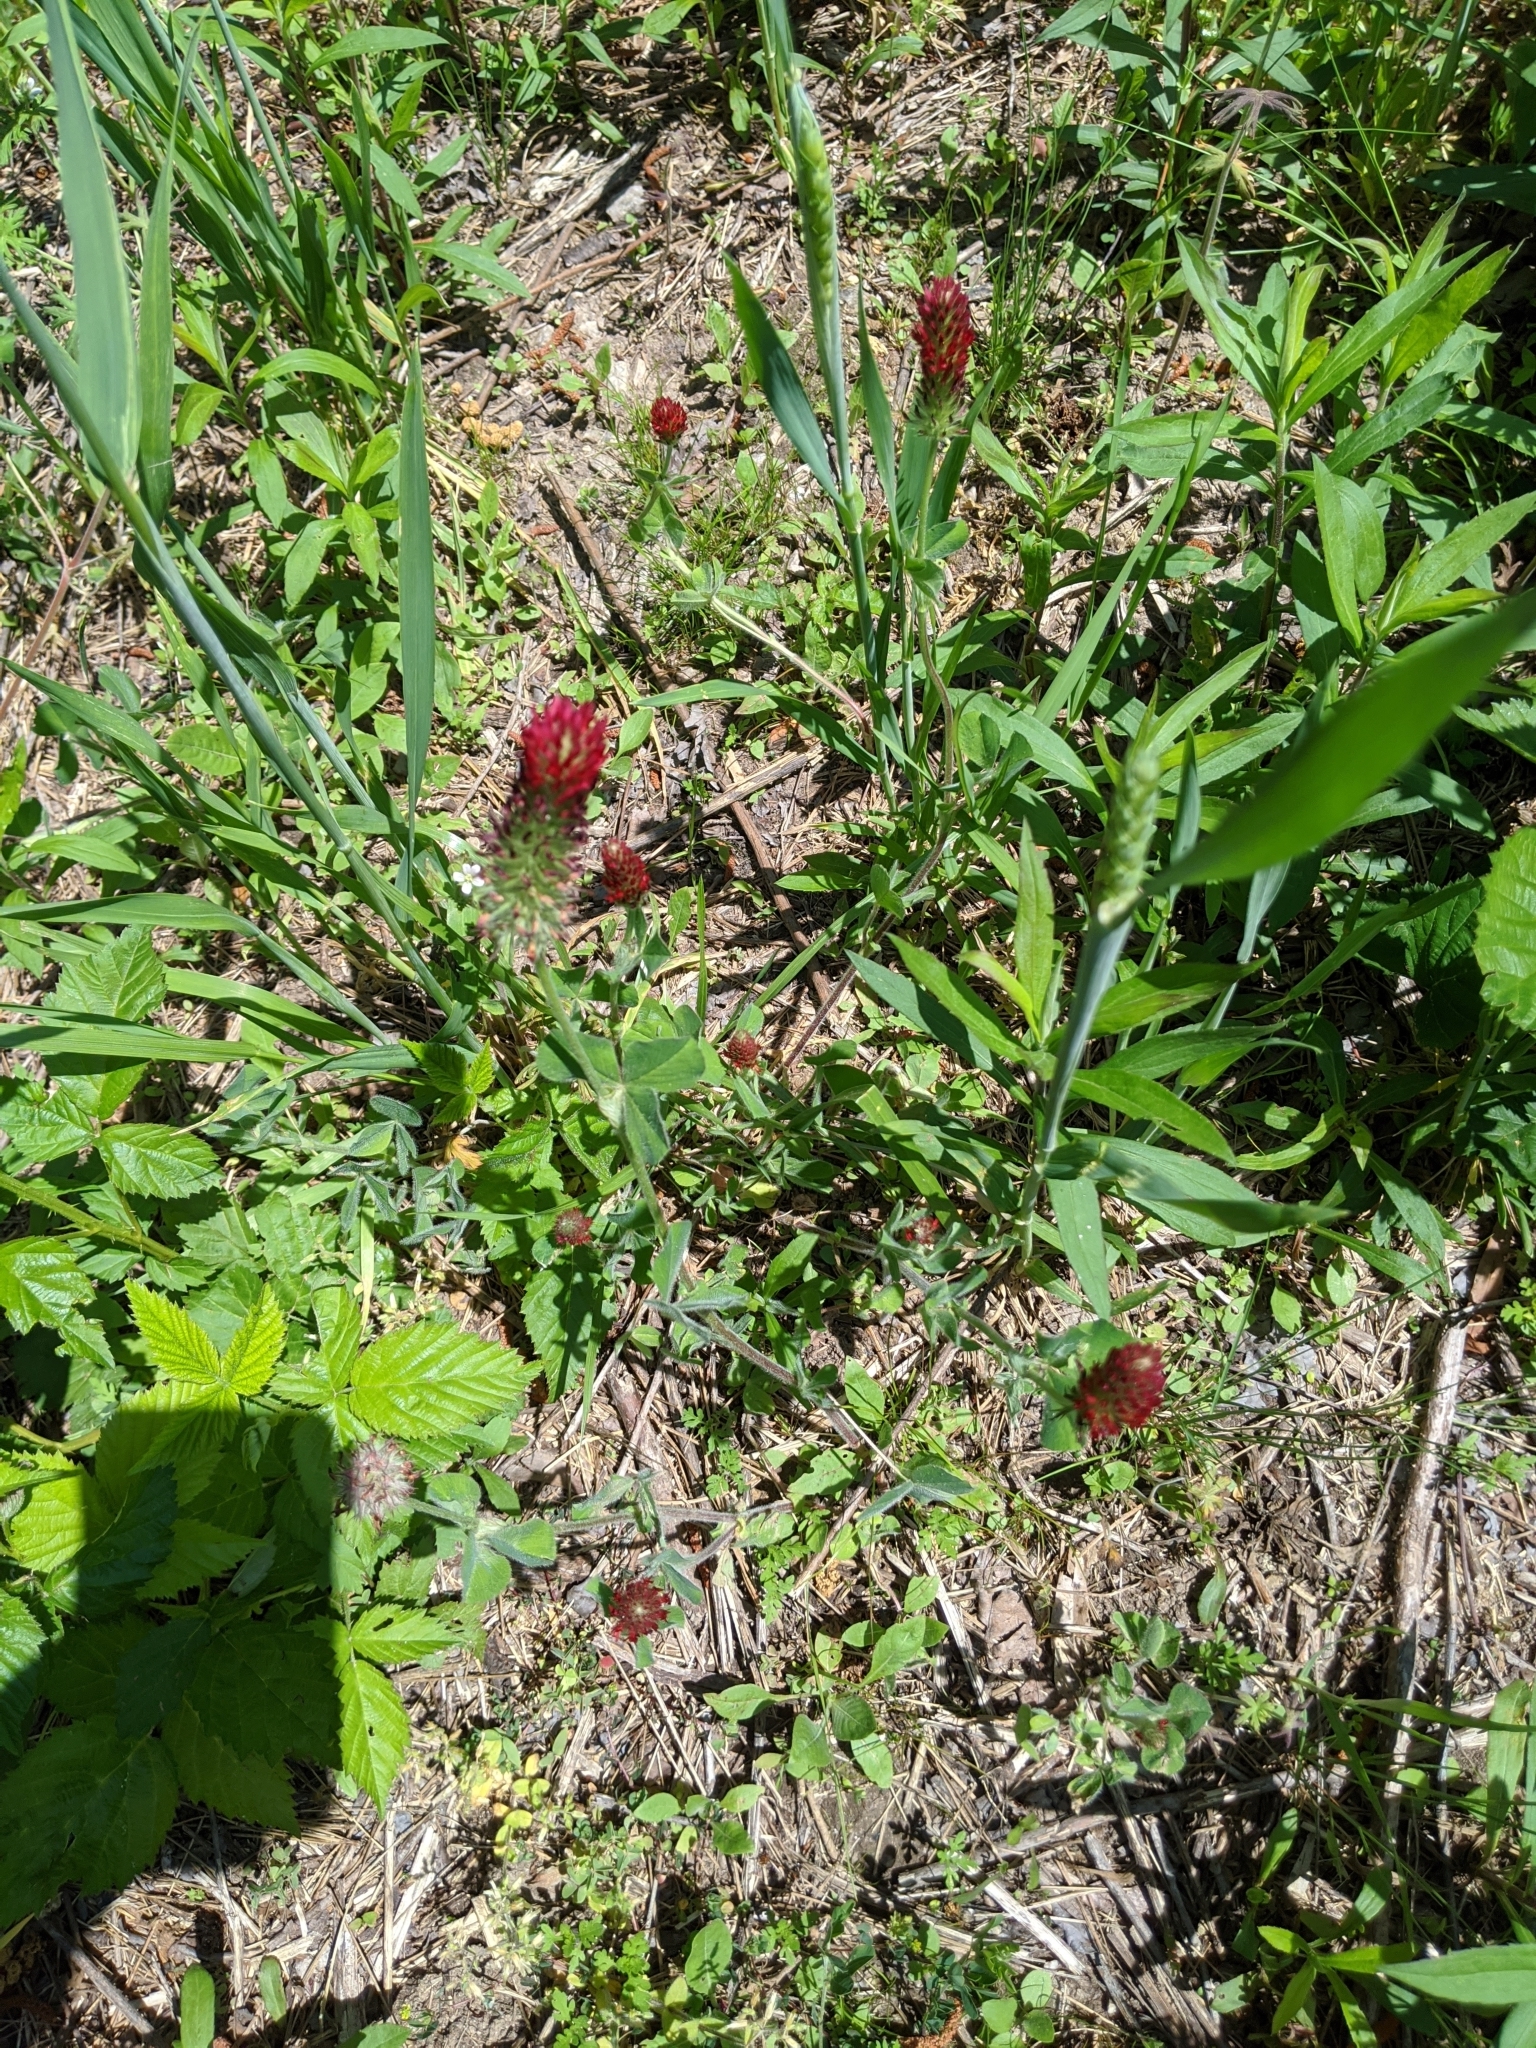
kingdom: Plantae
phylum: Tracheophyta
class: Magnoliopsida
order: Fabales
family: Fabaceae
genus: Trifolium
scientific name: Trifolium incarnatum
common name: Crimson clover
